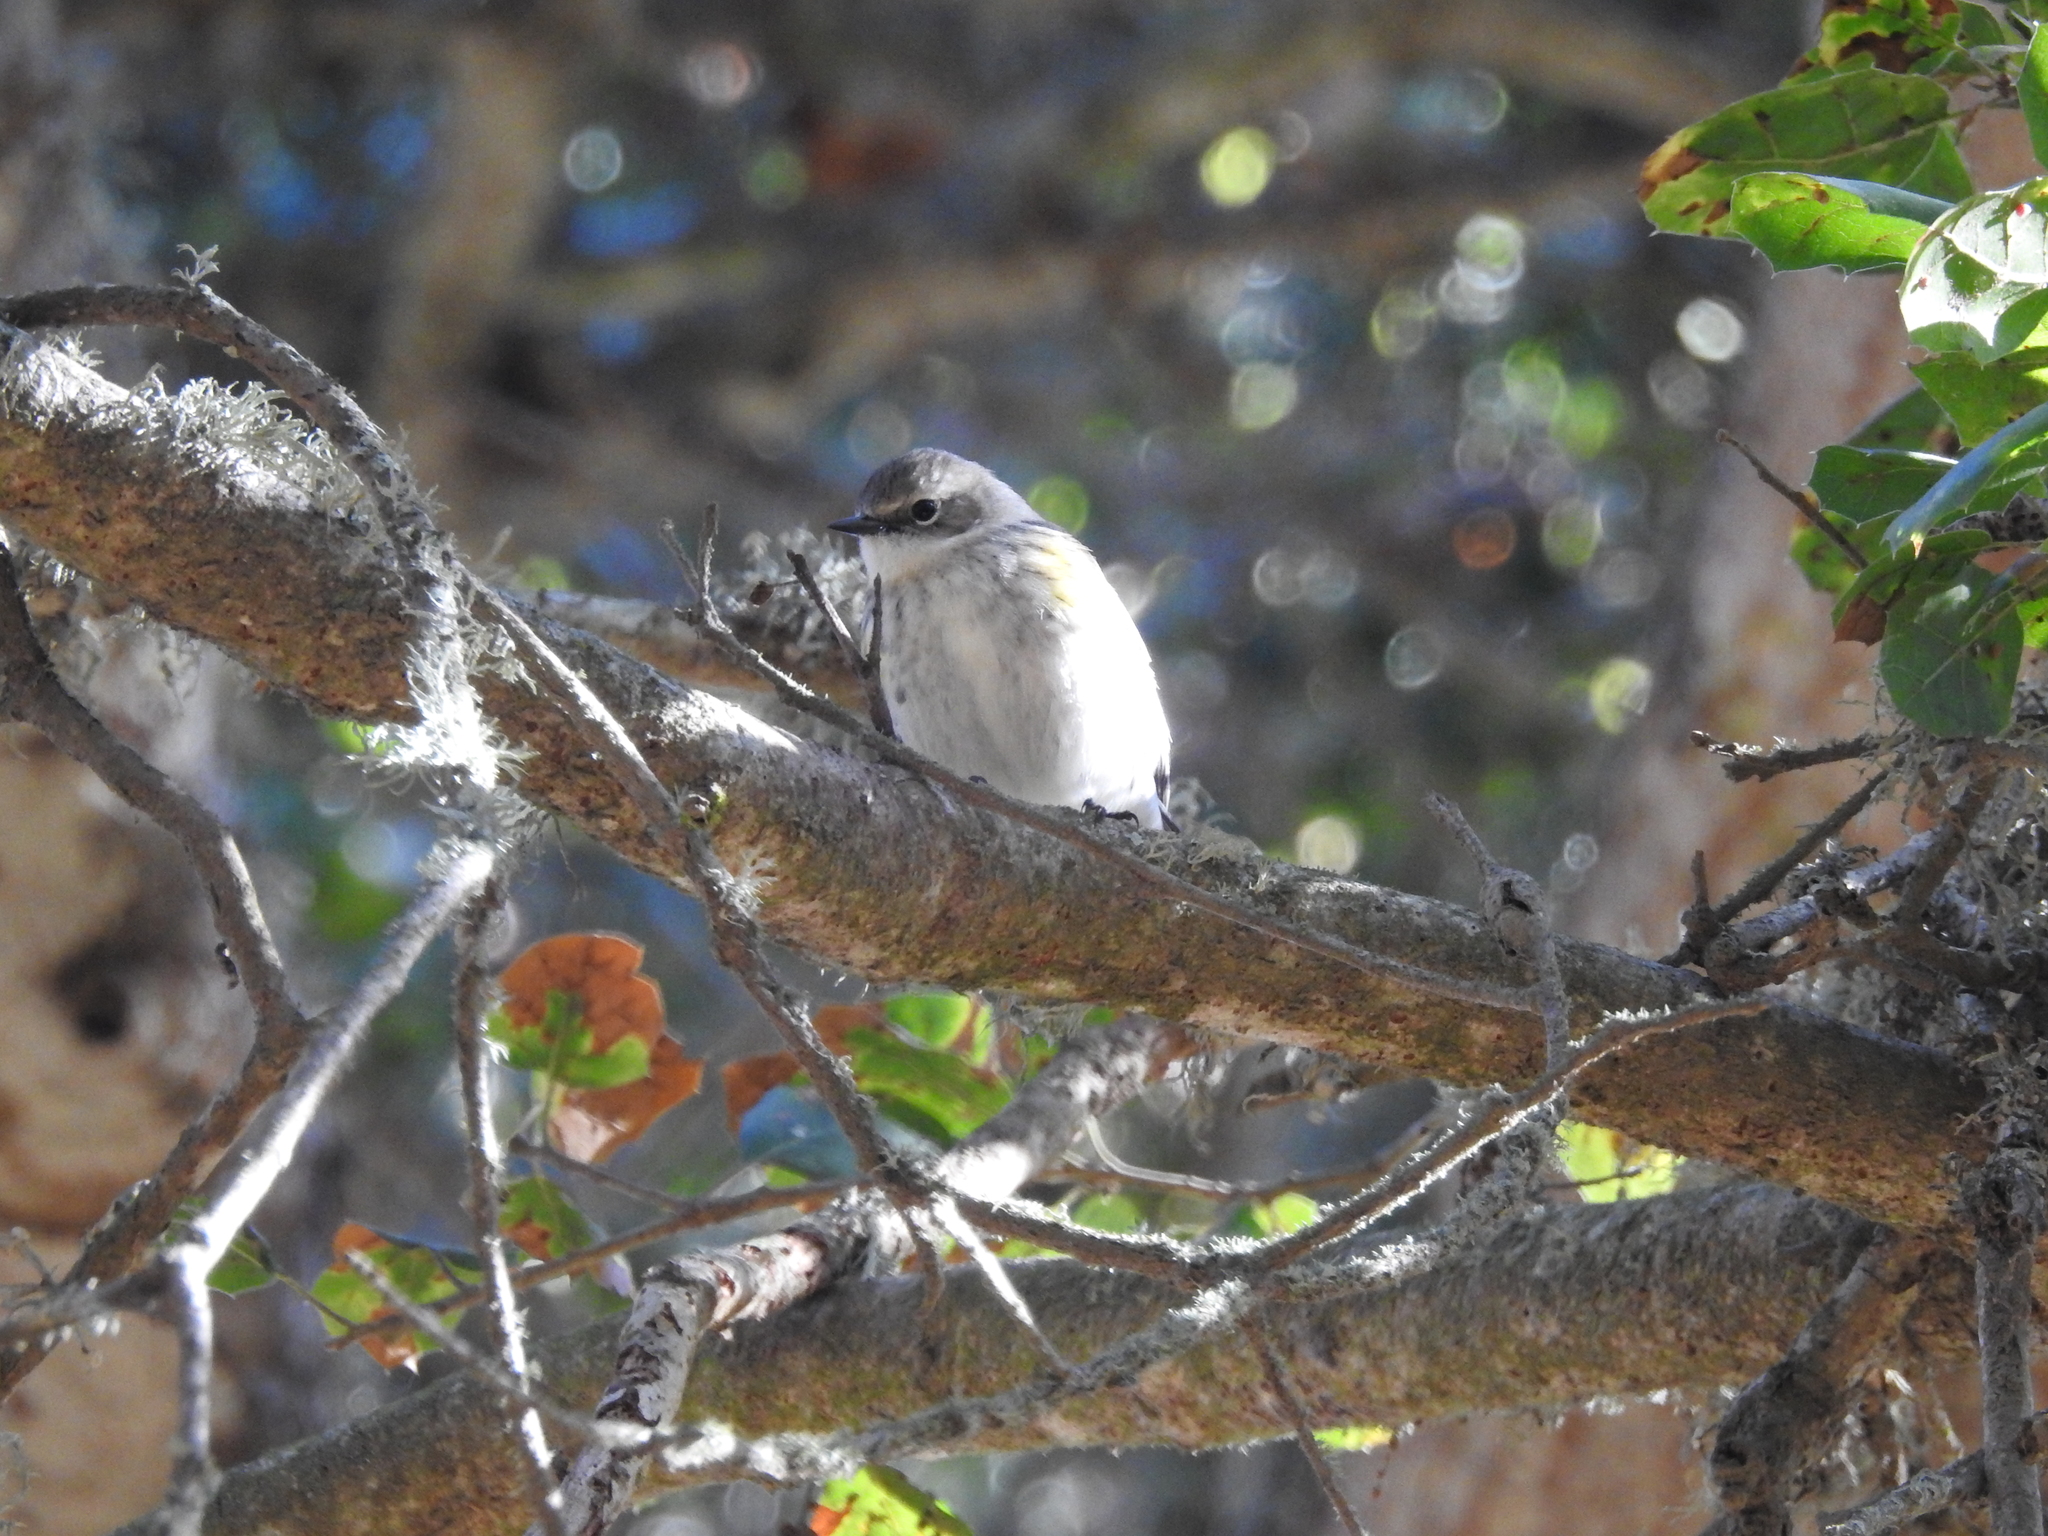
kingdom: Animalia
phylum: Chordata
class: Aves
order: Passeriformes
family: Parulidae
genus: Setophaga
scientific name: Setophaga coronata
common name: Myrtle warbler
